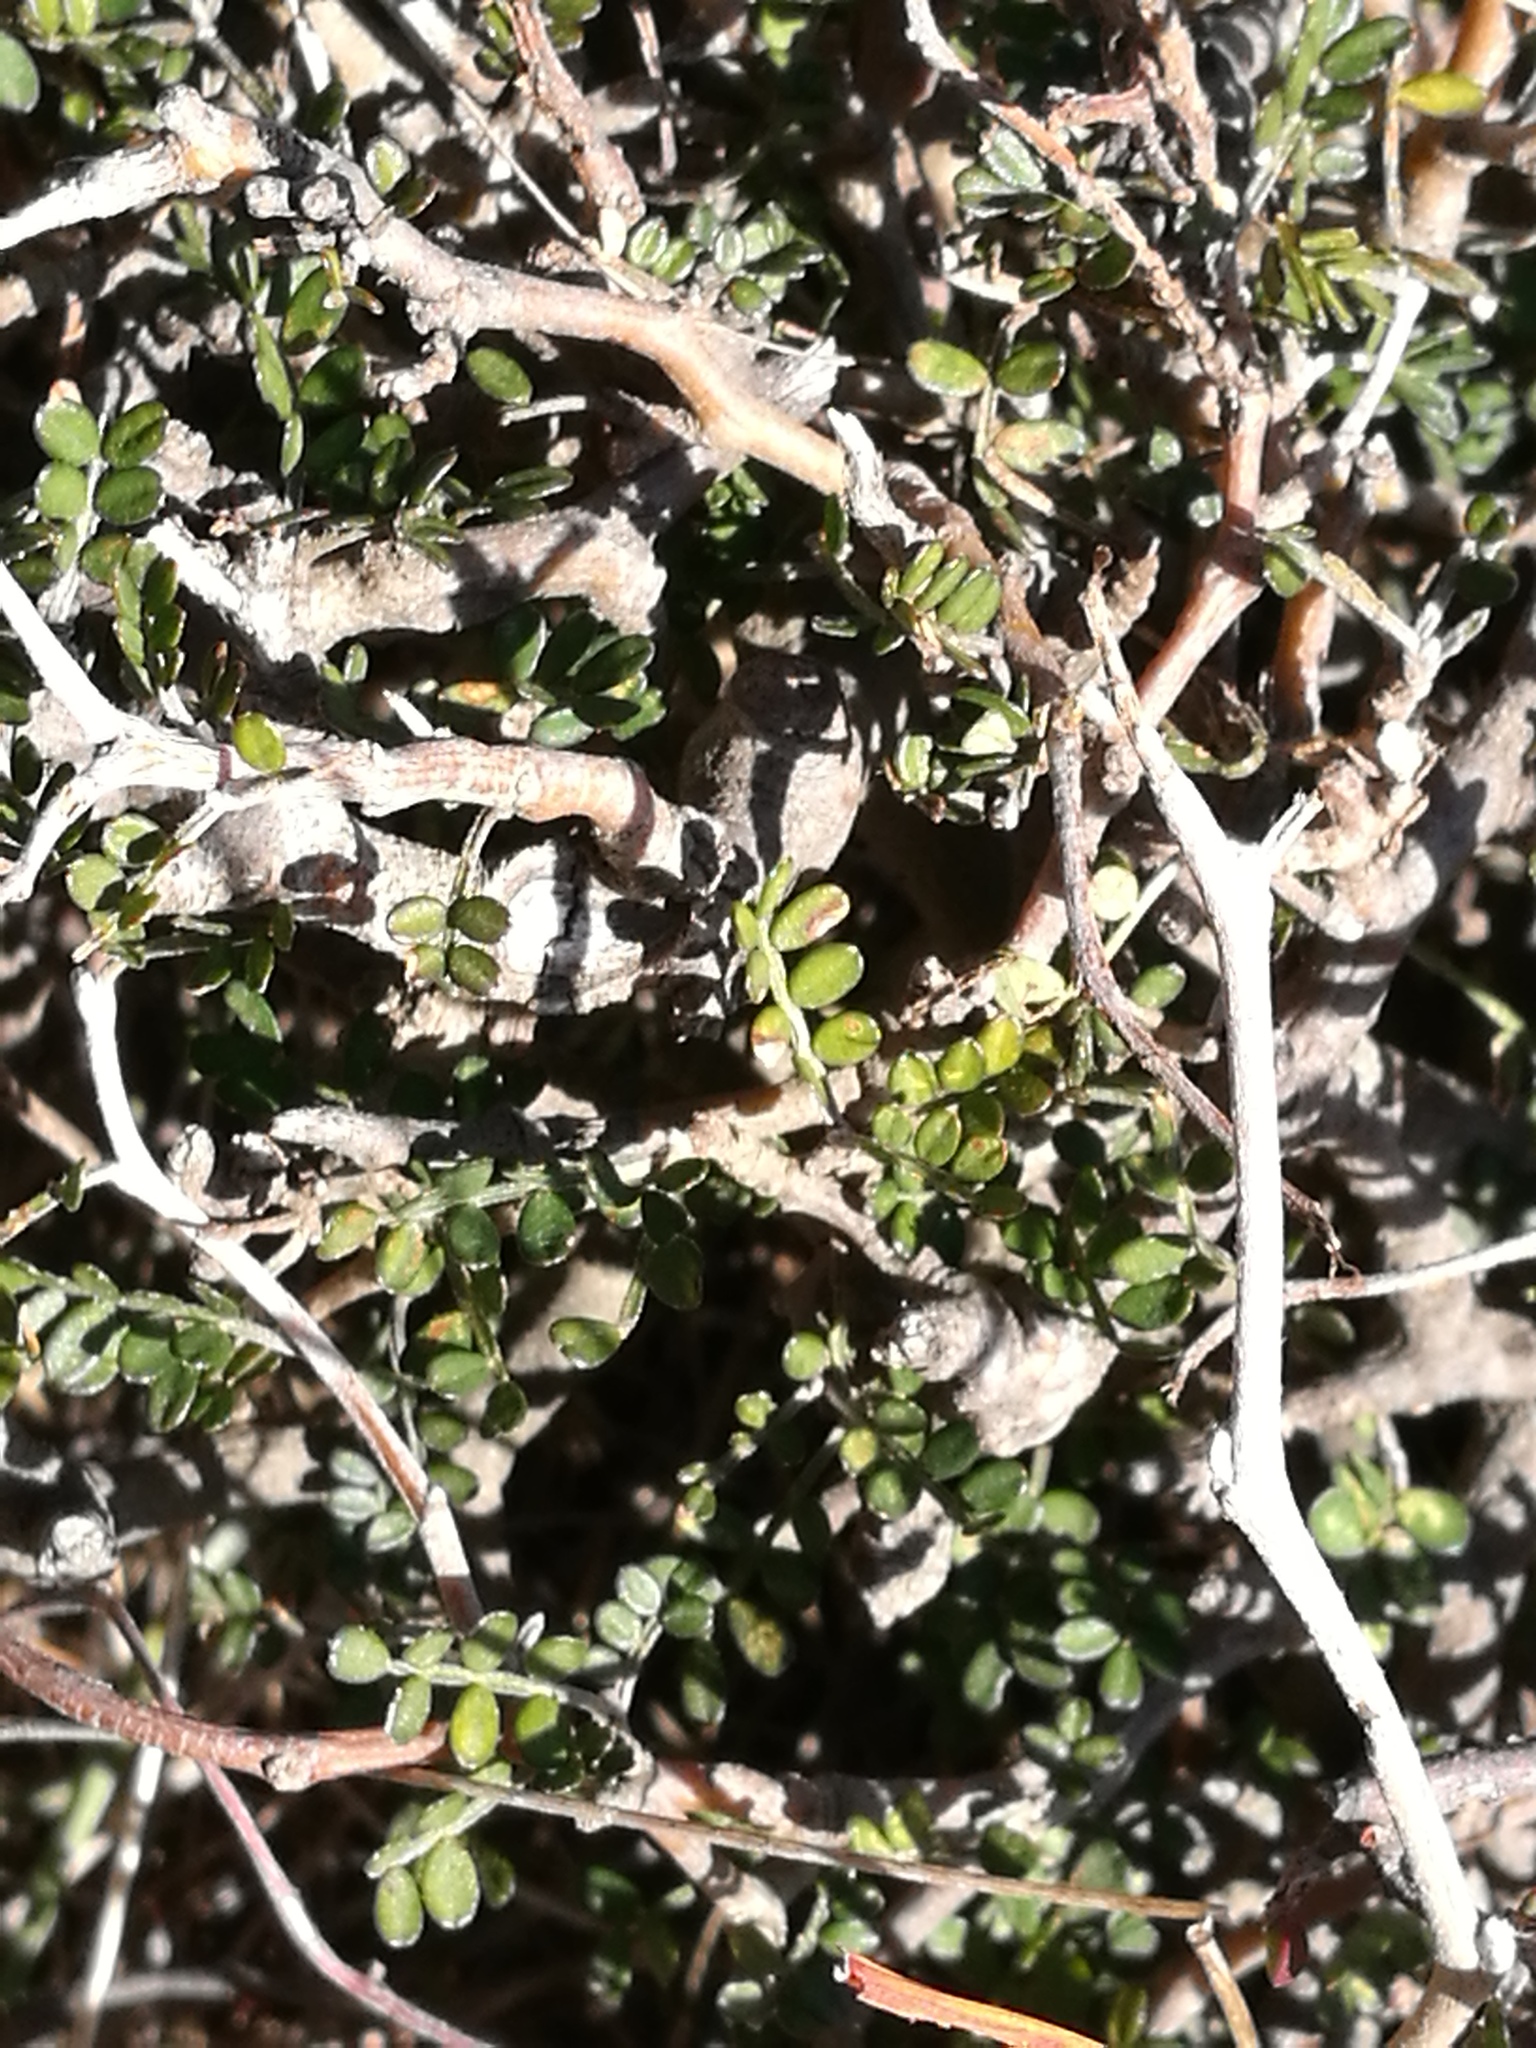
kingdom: Plantae
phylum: Tracheophyta
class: Magnoliopsida
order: Fabales
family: Fabaceae
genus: Sophora
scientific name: Sophora prostrata
